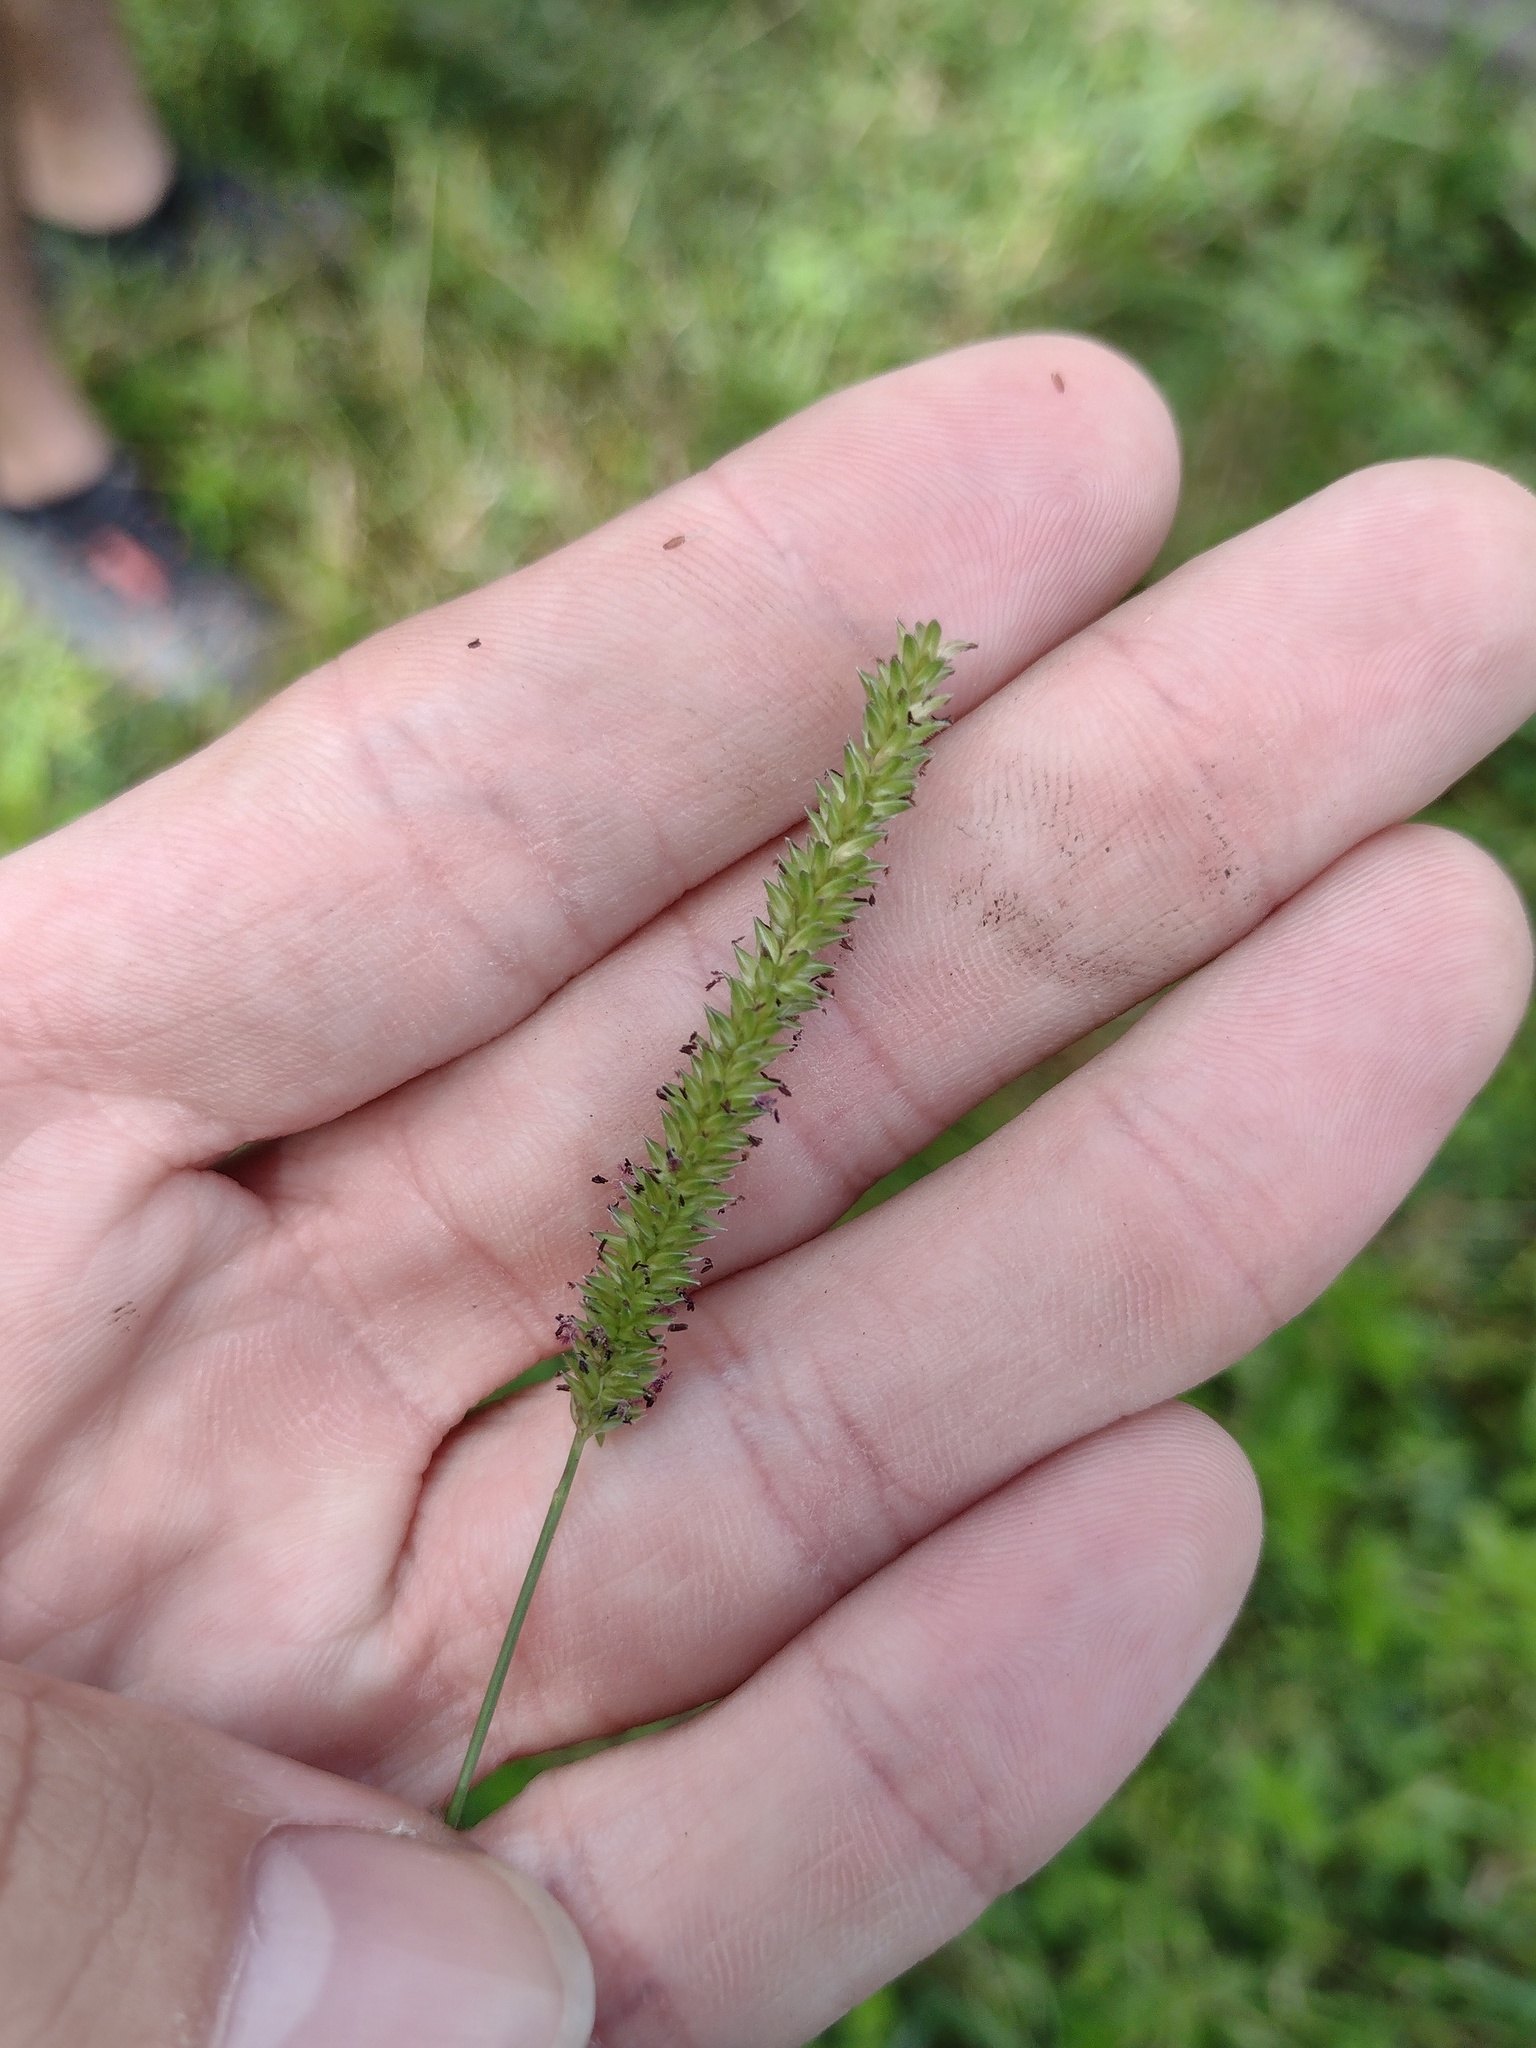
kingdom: Plantae
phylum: Tracheophyta
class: Liliopsida
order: Poales
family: Poaceae
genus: Sacciolepis
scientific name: Sacciolepis indica
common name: Glenwoodgrass
